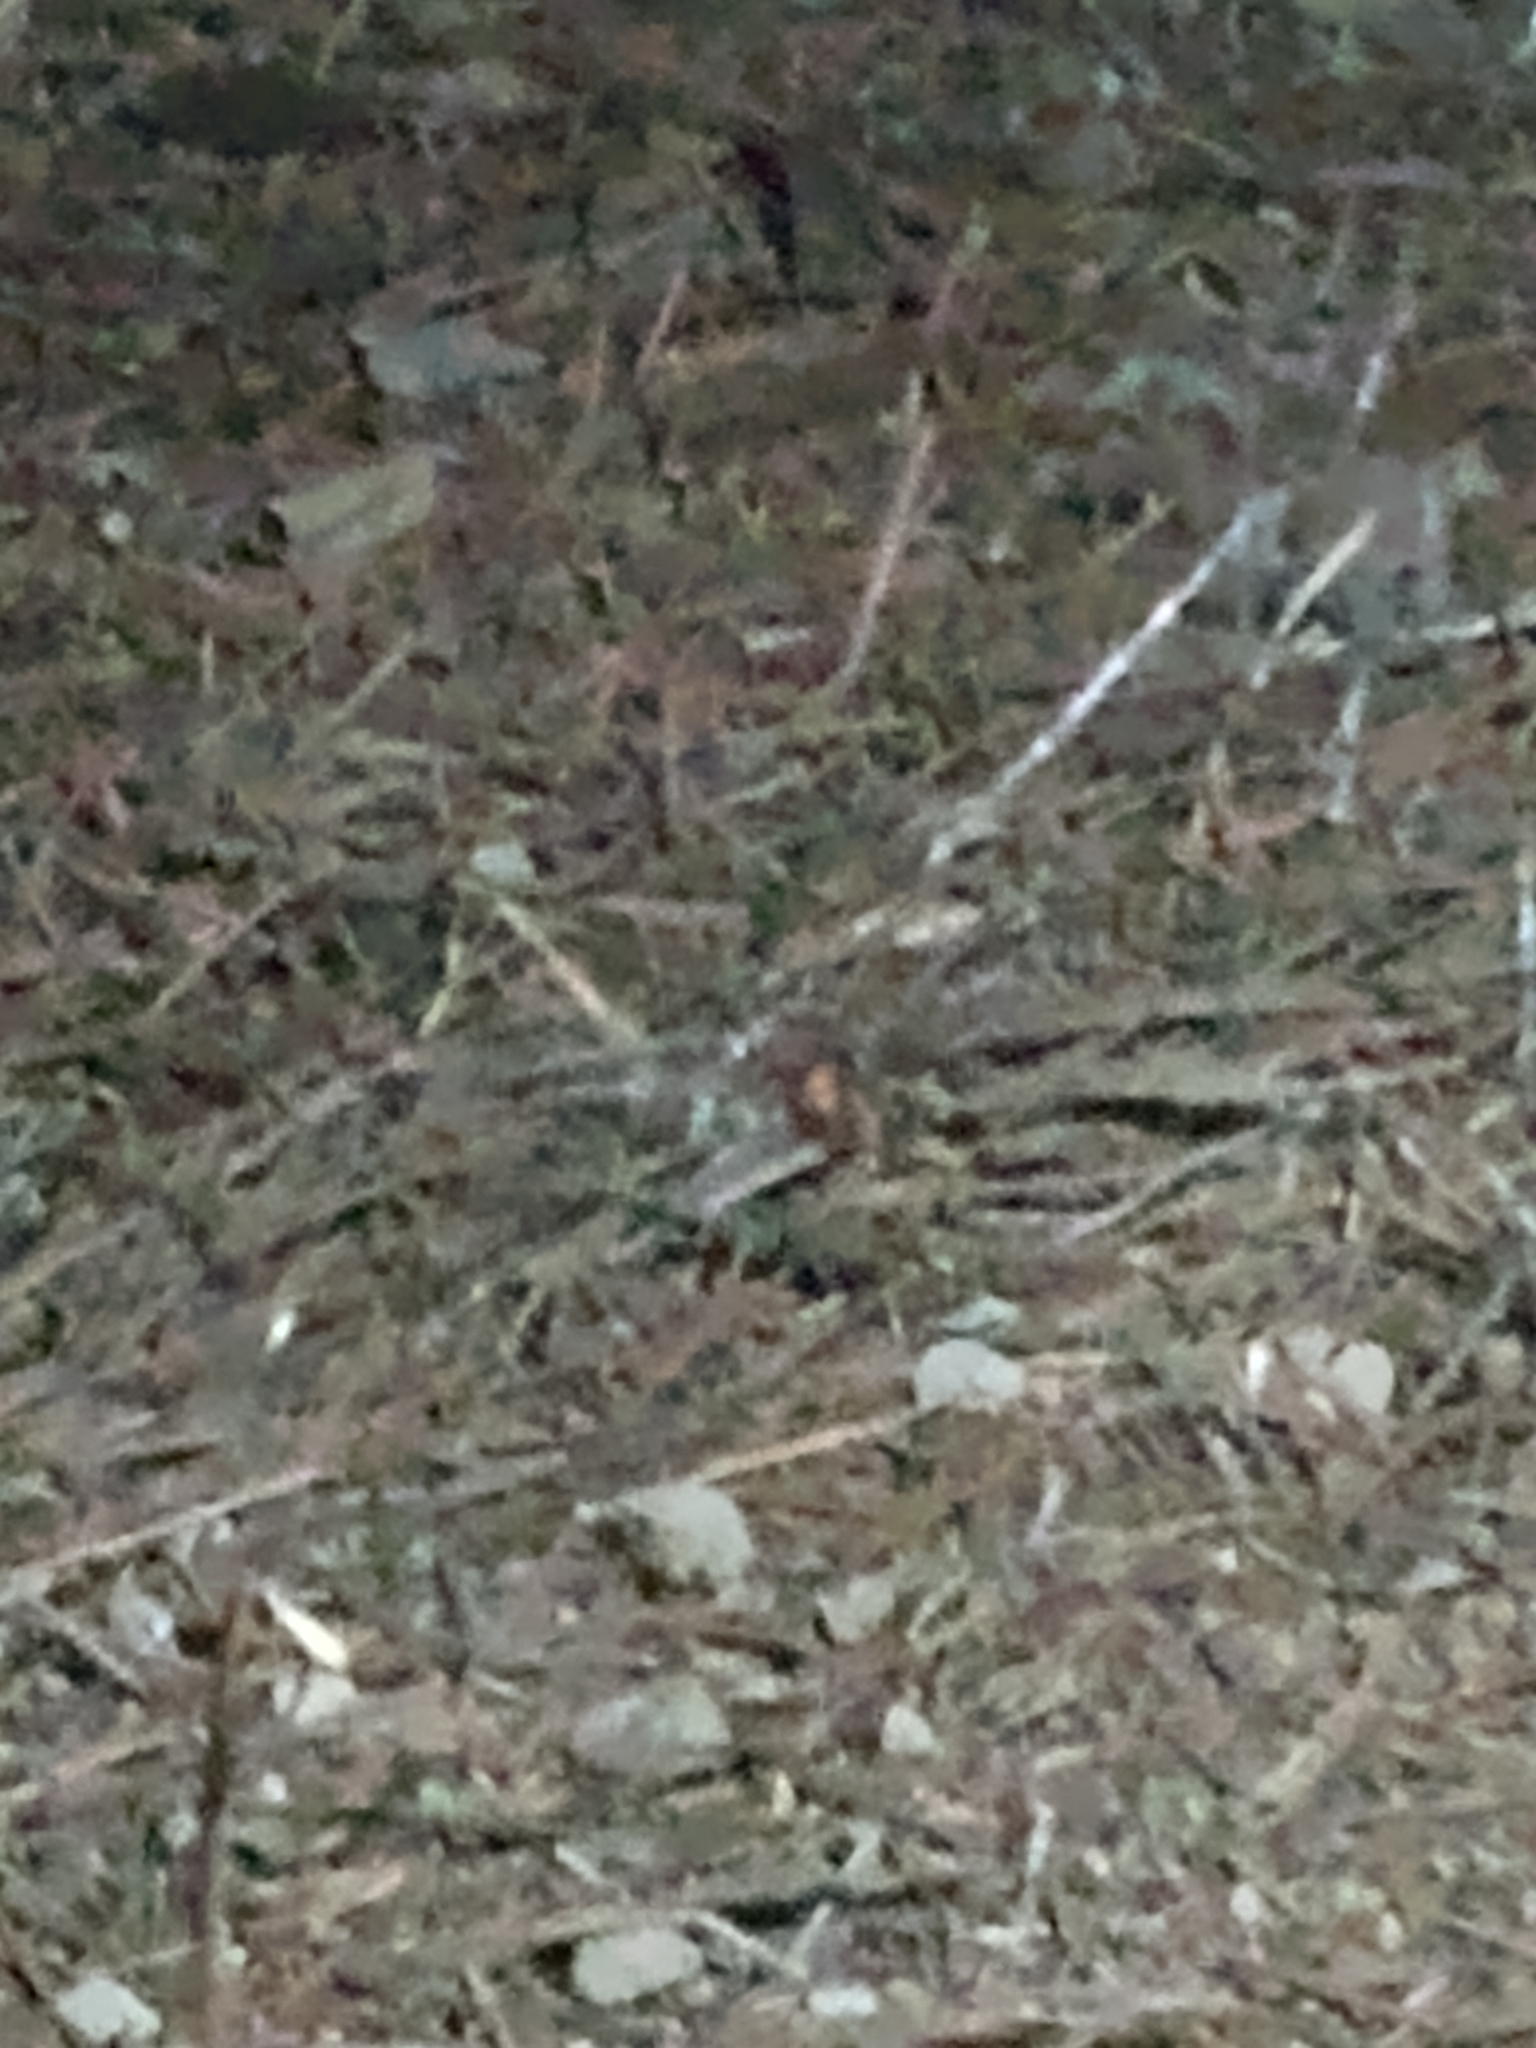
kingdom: Animalia
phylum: Arthropoda
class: Arachnida
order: Araneae
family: Theridiidae
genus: Latrodectus
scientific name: Latrodectus hesperus
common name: Western black widow
